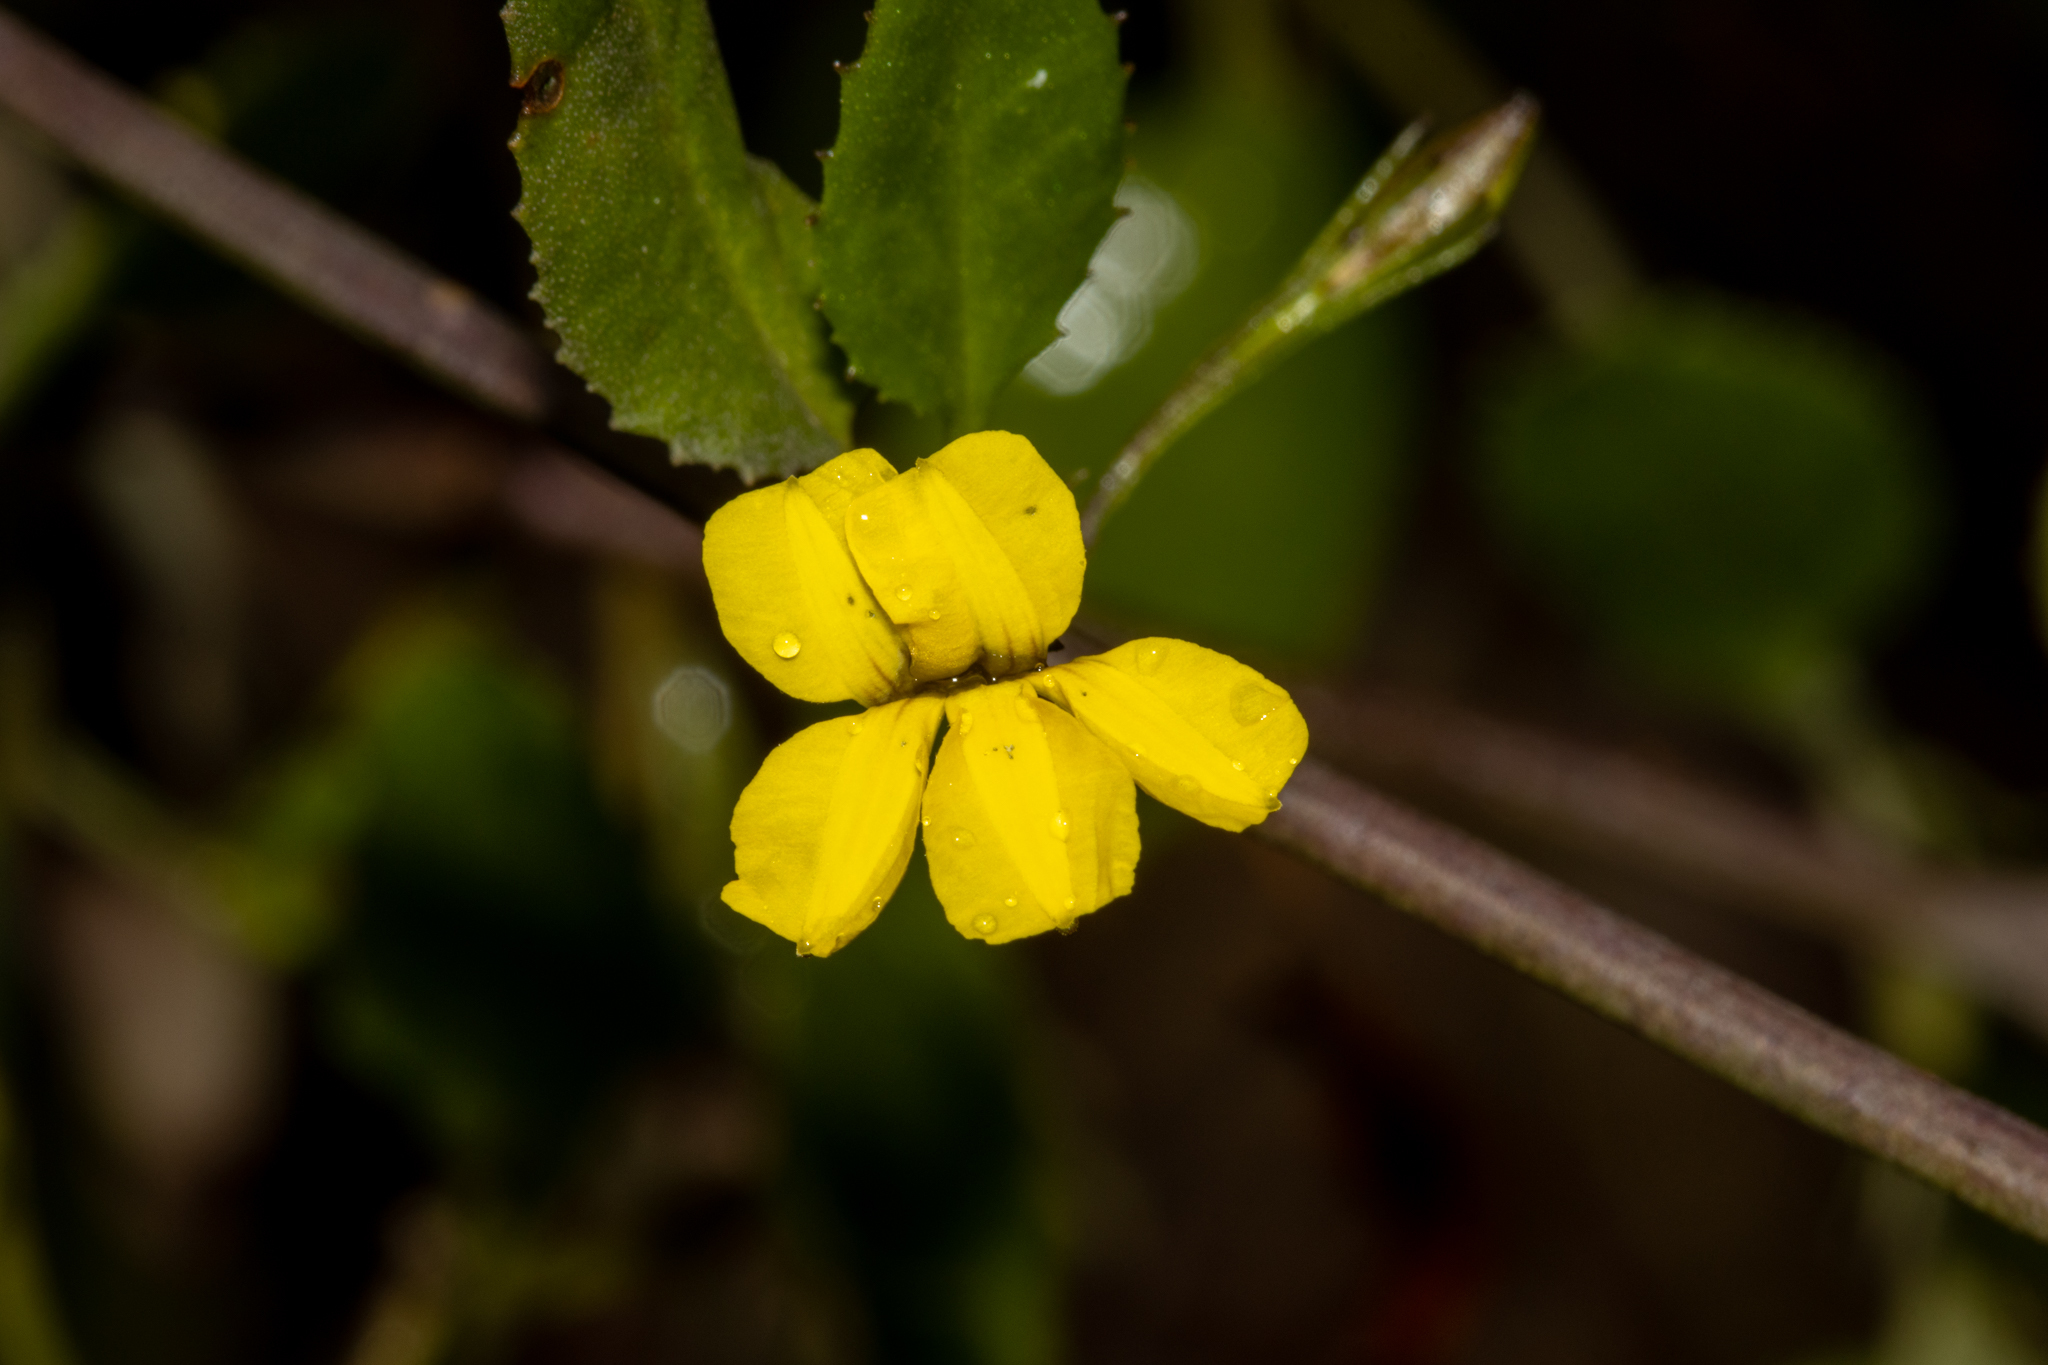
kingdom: Plantae
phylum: Tracheophyta
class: Magnoliopsida
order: Asterales
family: Goodeniaceae
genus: Goodenia
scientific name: Goodenia ovata
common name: Hop goodenia
